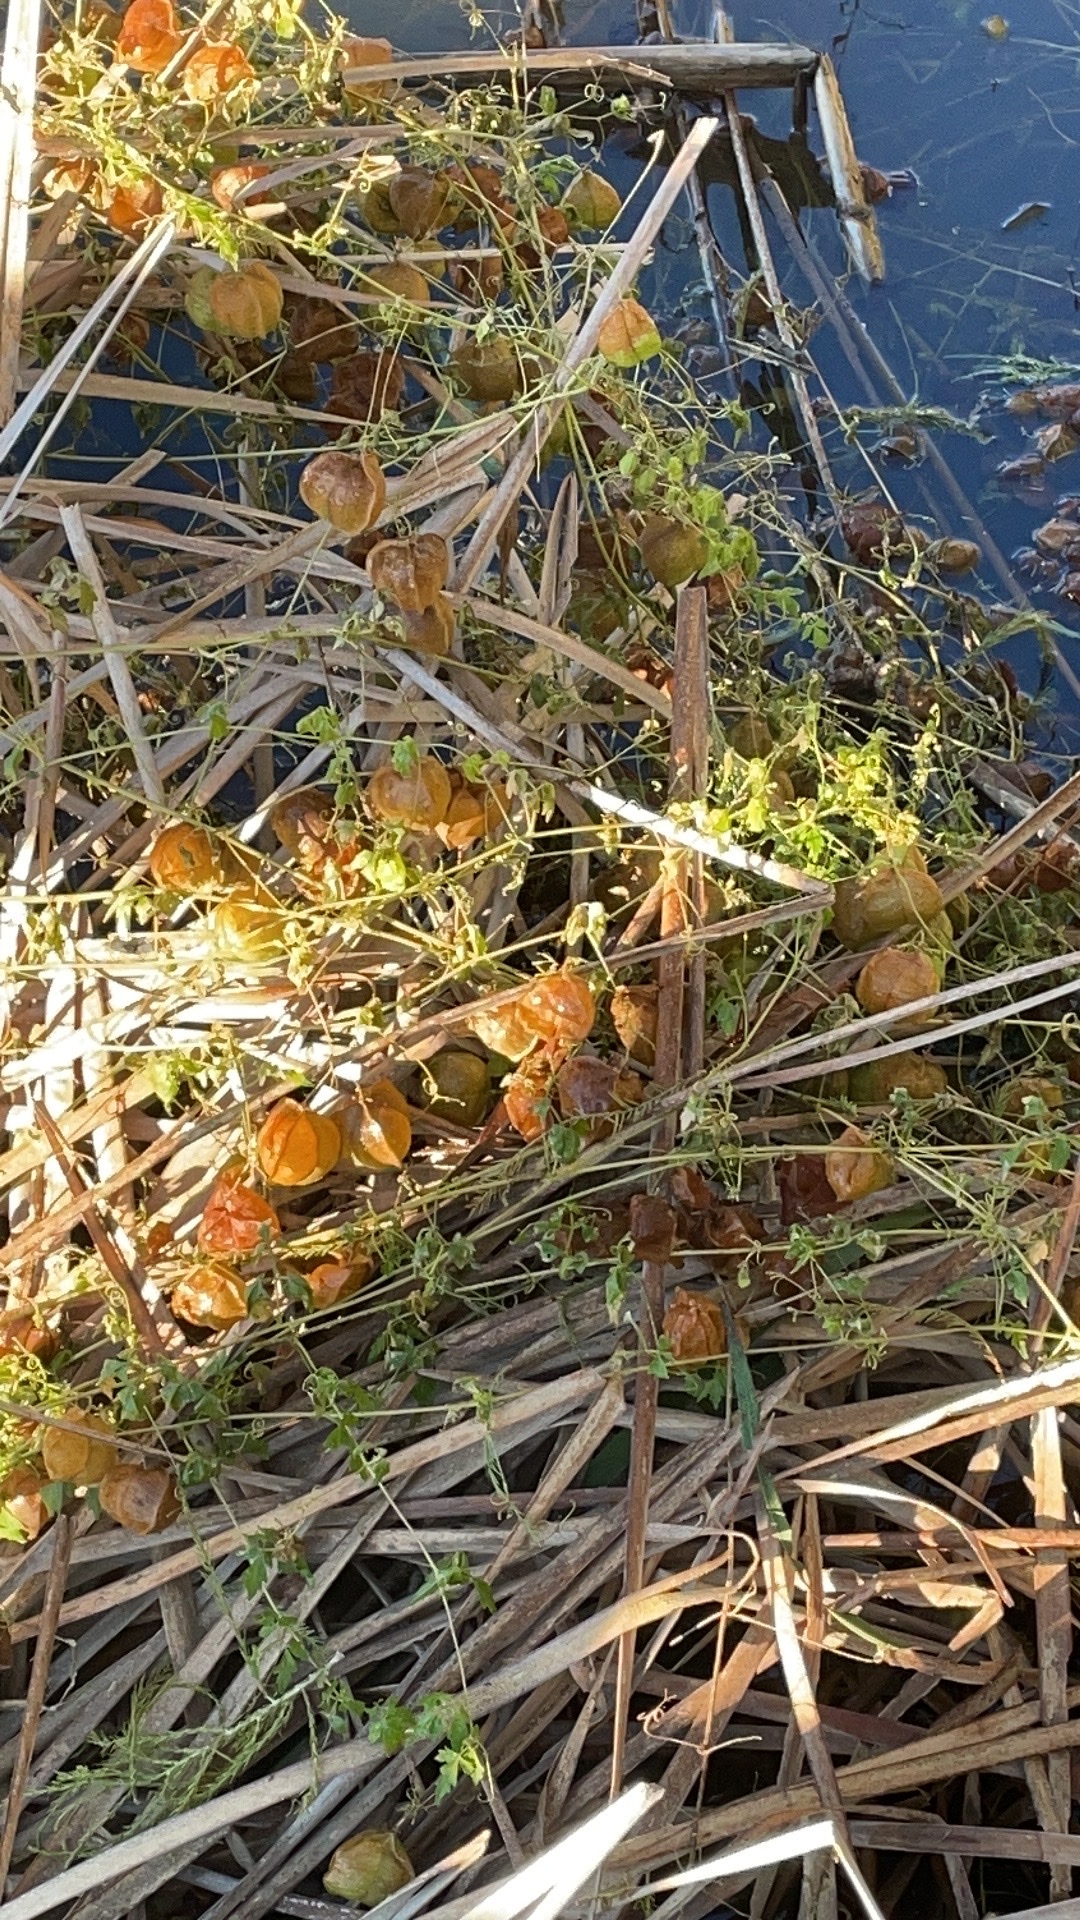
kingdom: Plantae
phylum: Tracheophyta
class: Magnoliopsida
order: Sapindales
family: Sapindaceae
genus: Cardiospermum
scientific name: Cardiospermum halicacabum
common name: Balloon vine
